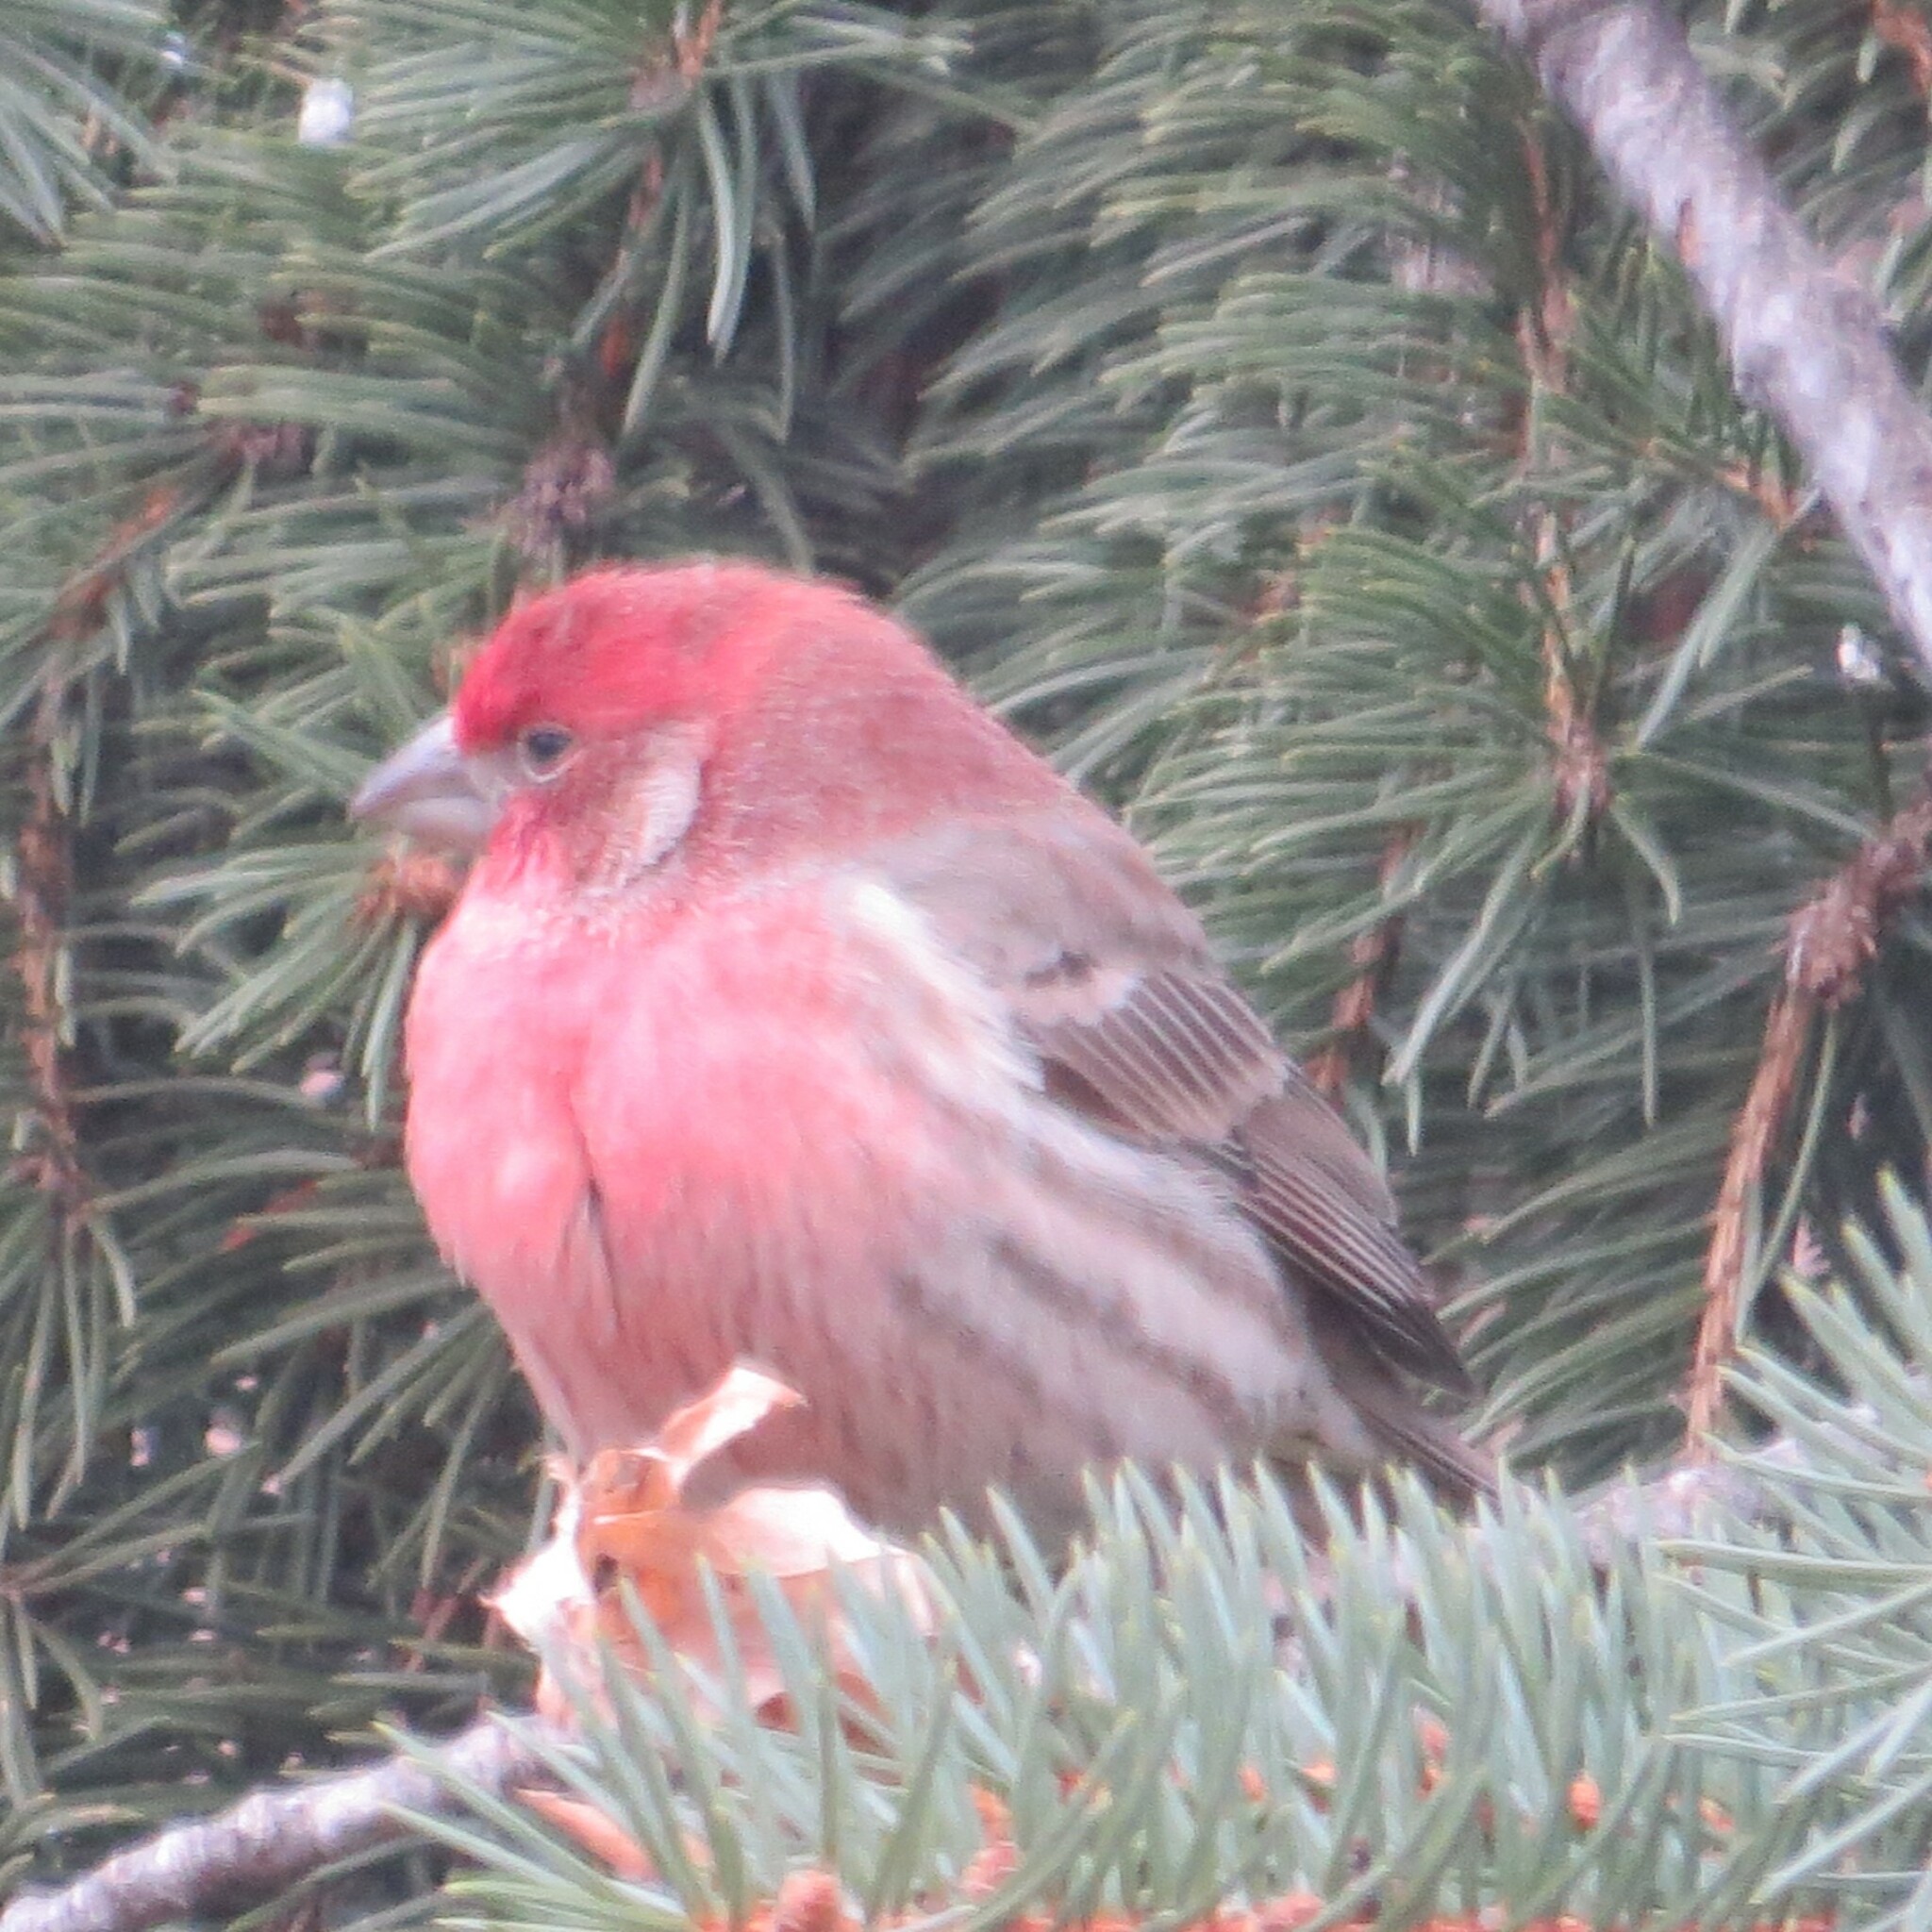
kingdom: Animalia
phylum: Chordata
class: Aves
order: Passeriformes
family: Fringillidae
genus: Haemorhous
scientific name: Haemorhous mexicanus
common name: House finch
